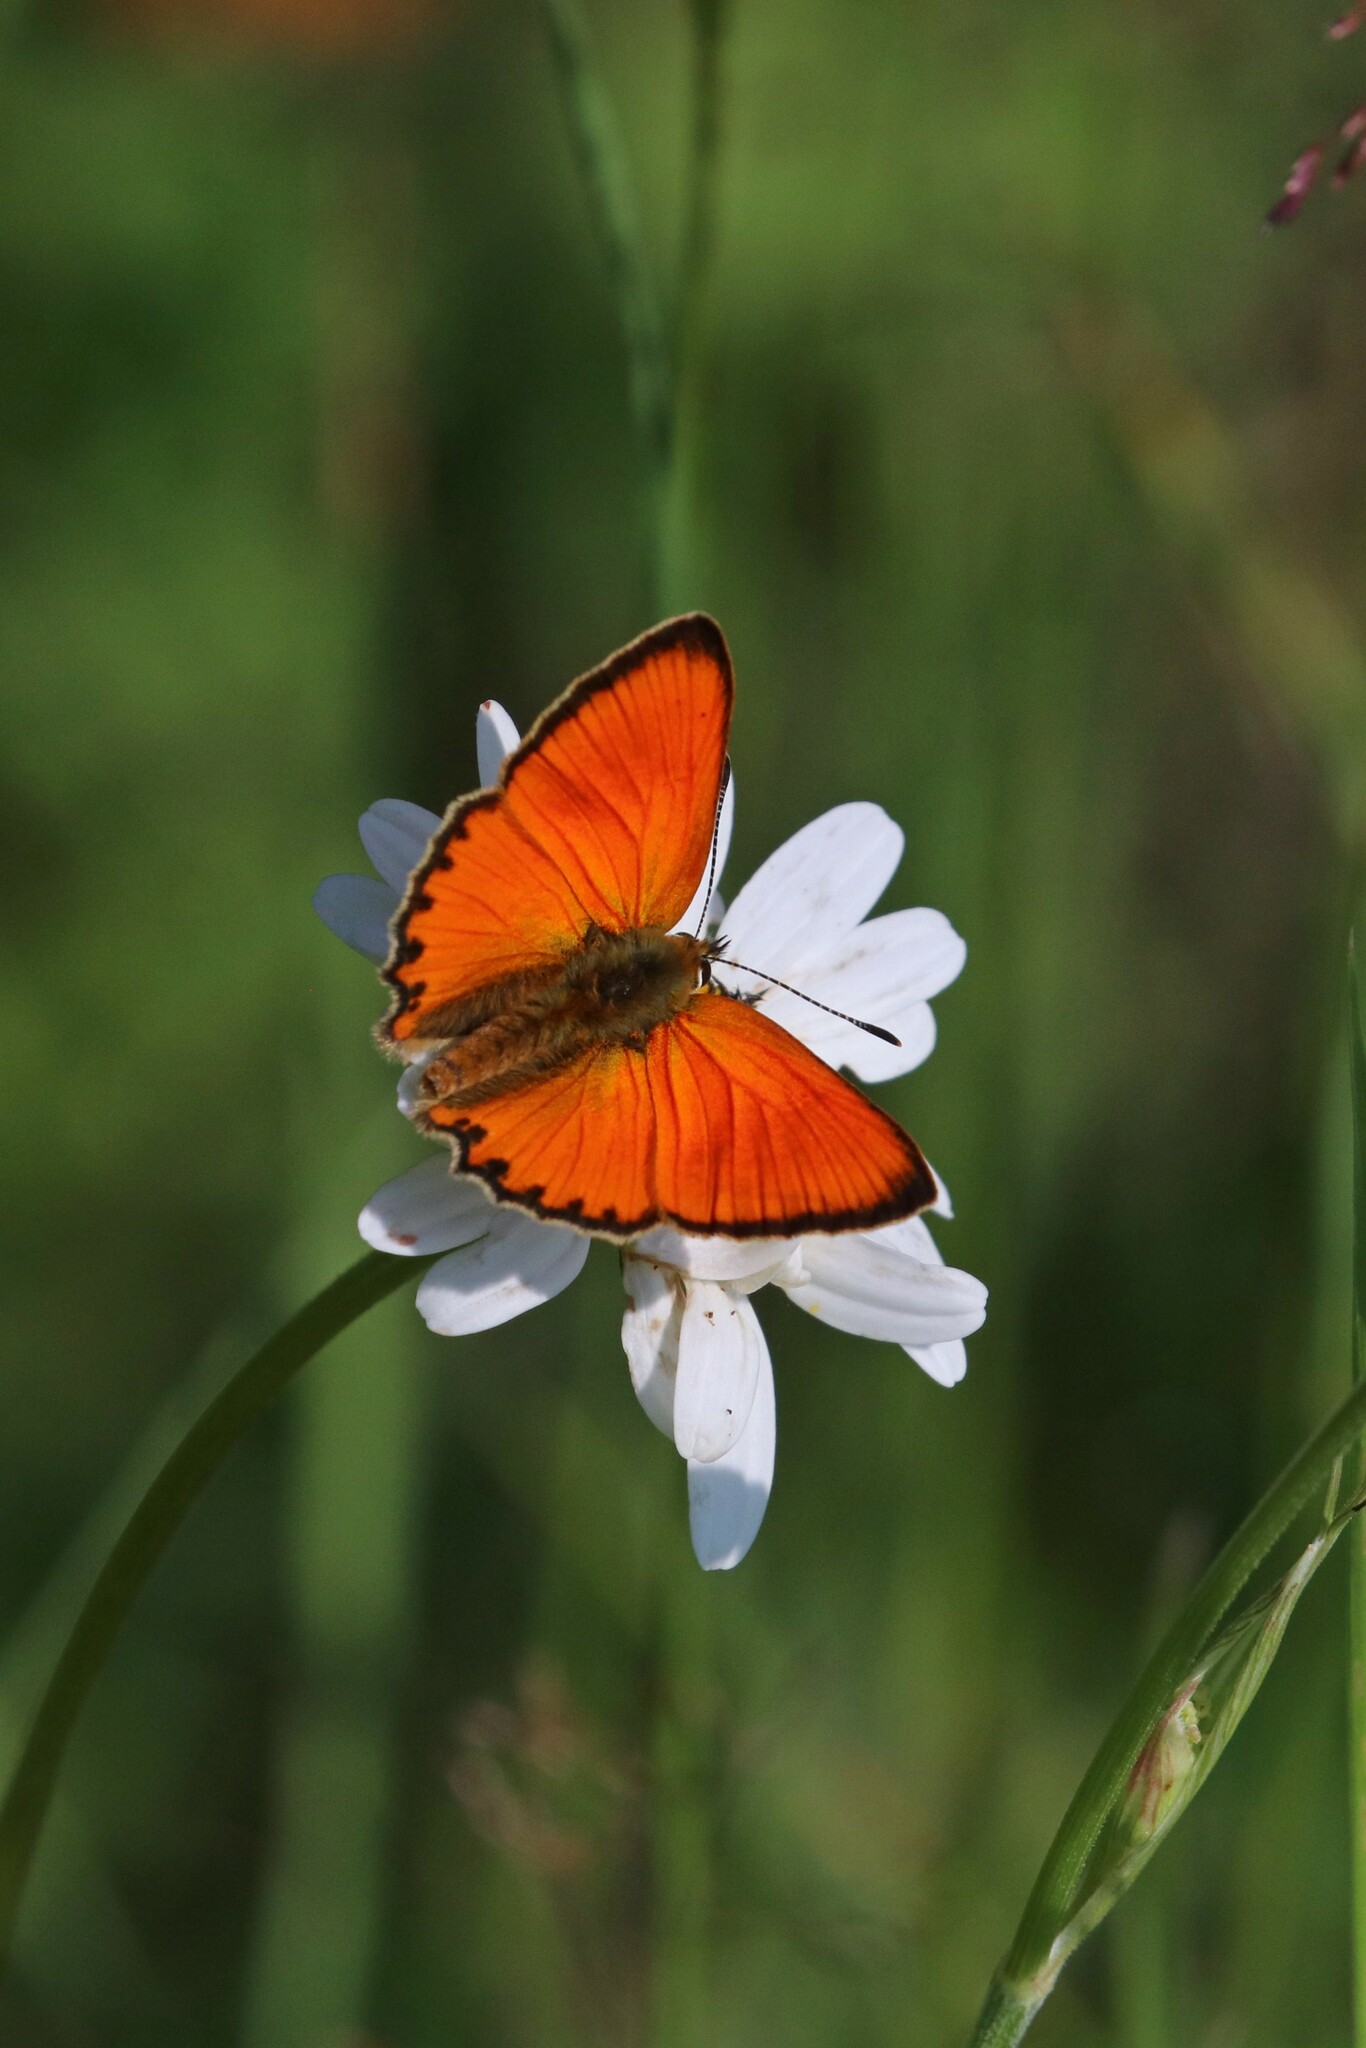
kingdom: Animalia
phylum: Arthropoda
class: Insecta
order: Lepidoptera
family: Lycaenidae
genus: Lycaena
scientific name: Lycaena virgaureae
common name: Scarce copper
